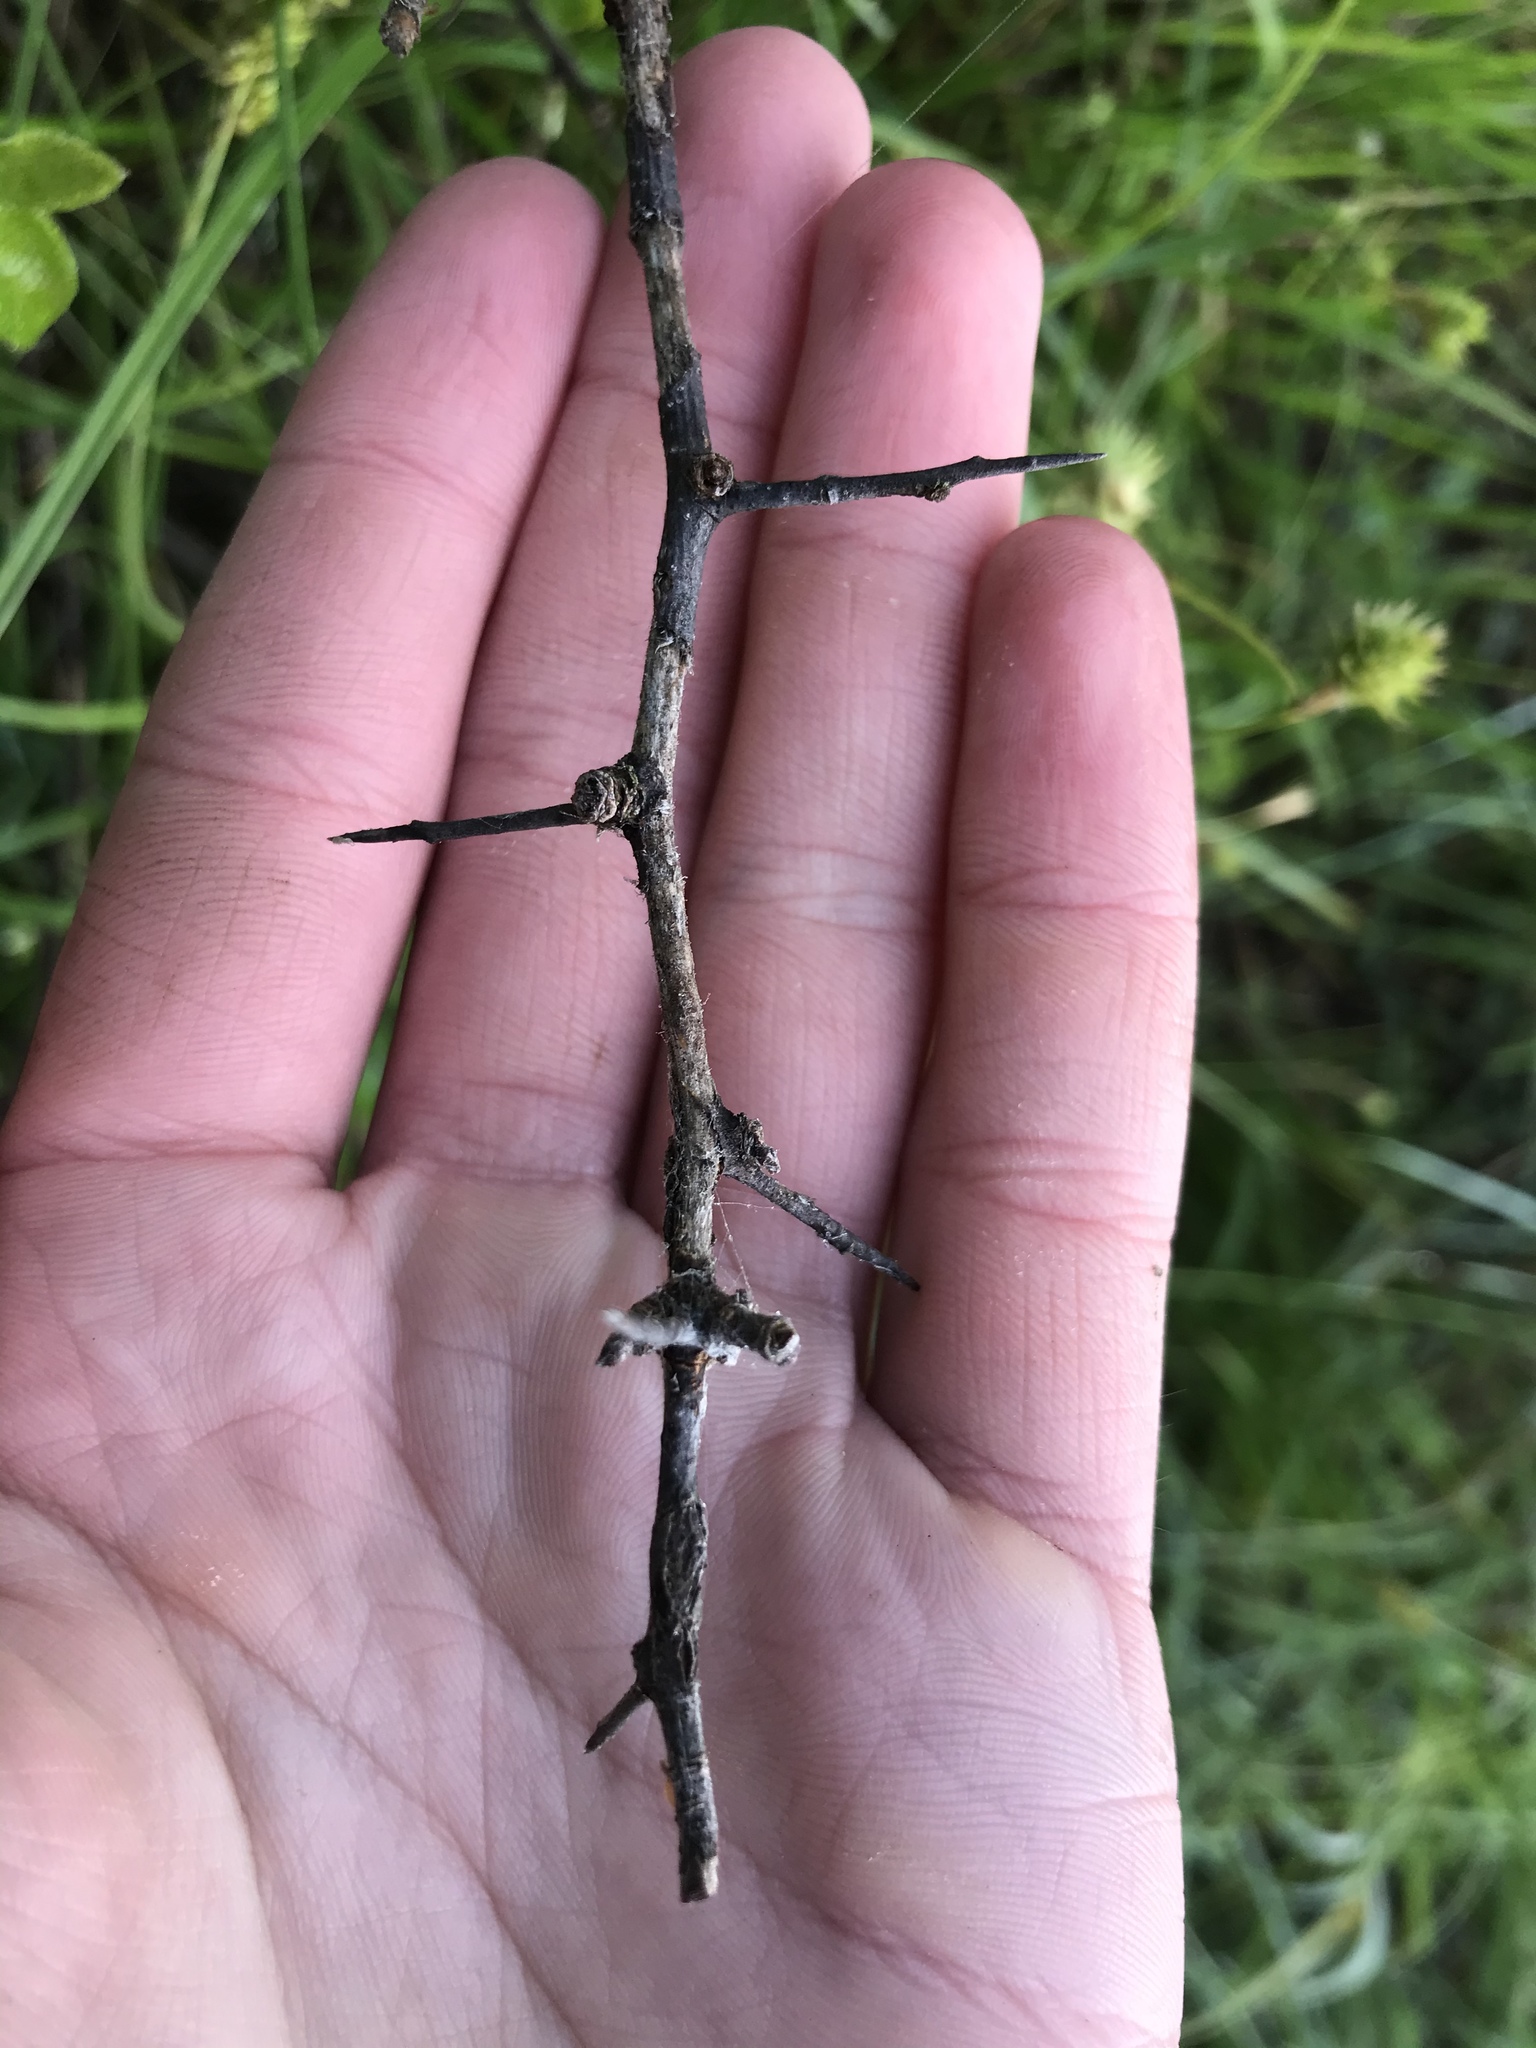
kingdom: Plantae
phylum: Tracheophyta
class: Magnoliopsida
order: Ericales
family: Sapotaceae
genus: Sideroxylon
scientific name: Sideroxylon lanuginosum
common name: Chittamwood
